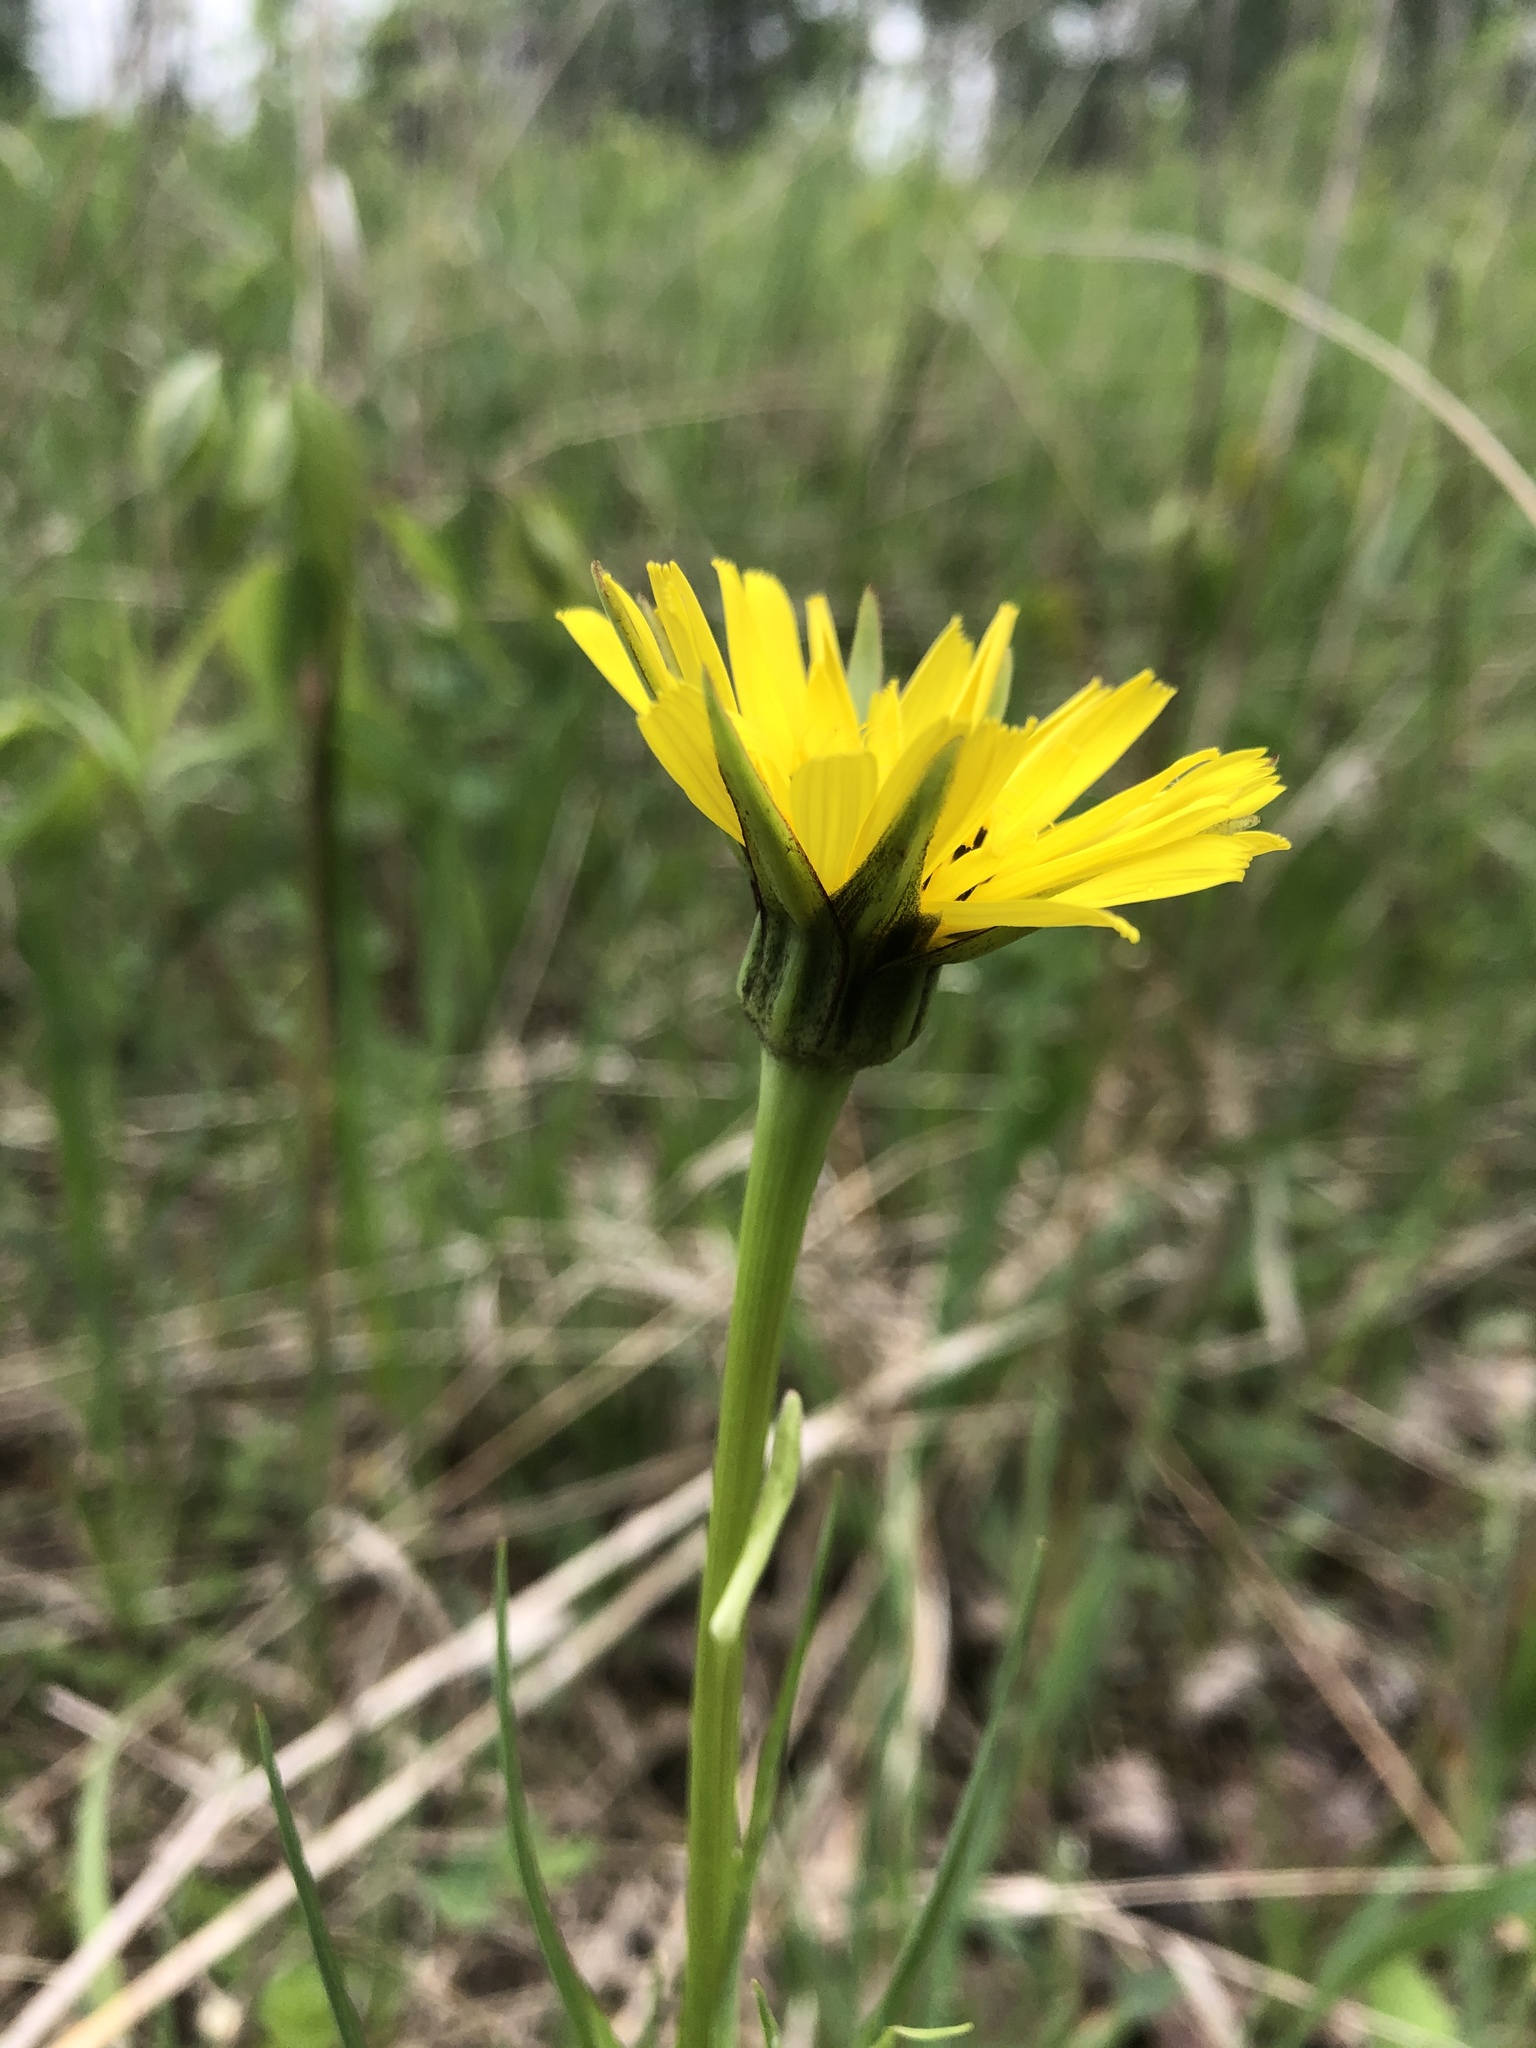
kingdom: Plantae
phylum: Tracheophyta
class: Magnoliopsida
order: Asterales
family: Asteraceae
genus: Tragopogon
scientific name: Tragopogon pratensis
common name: Goat's-beard
